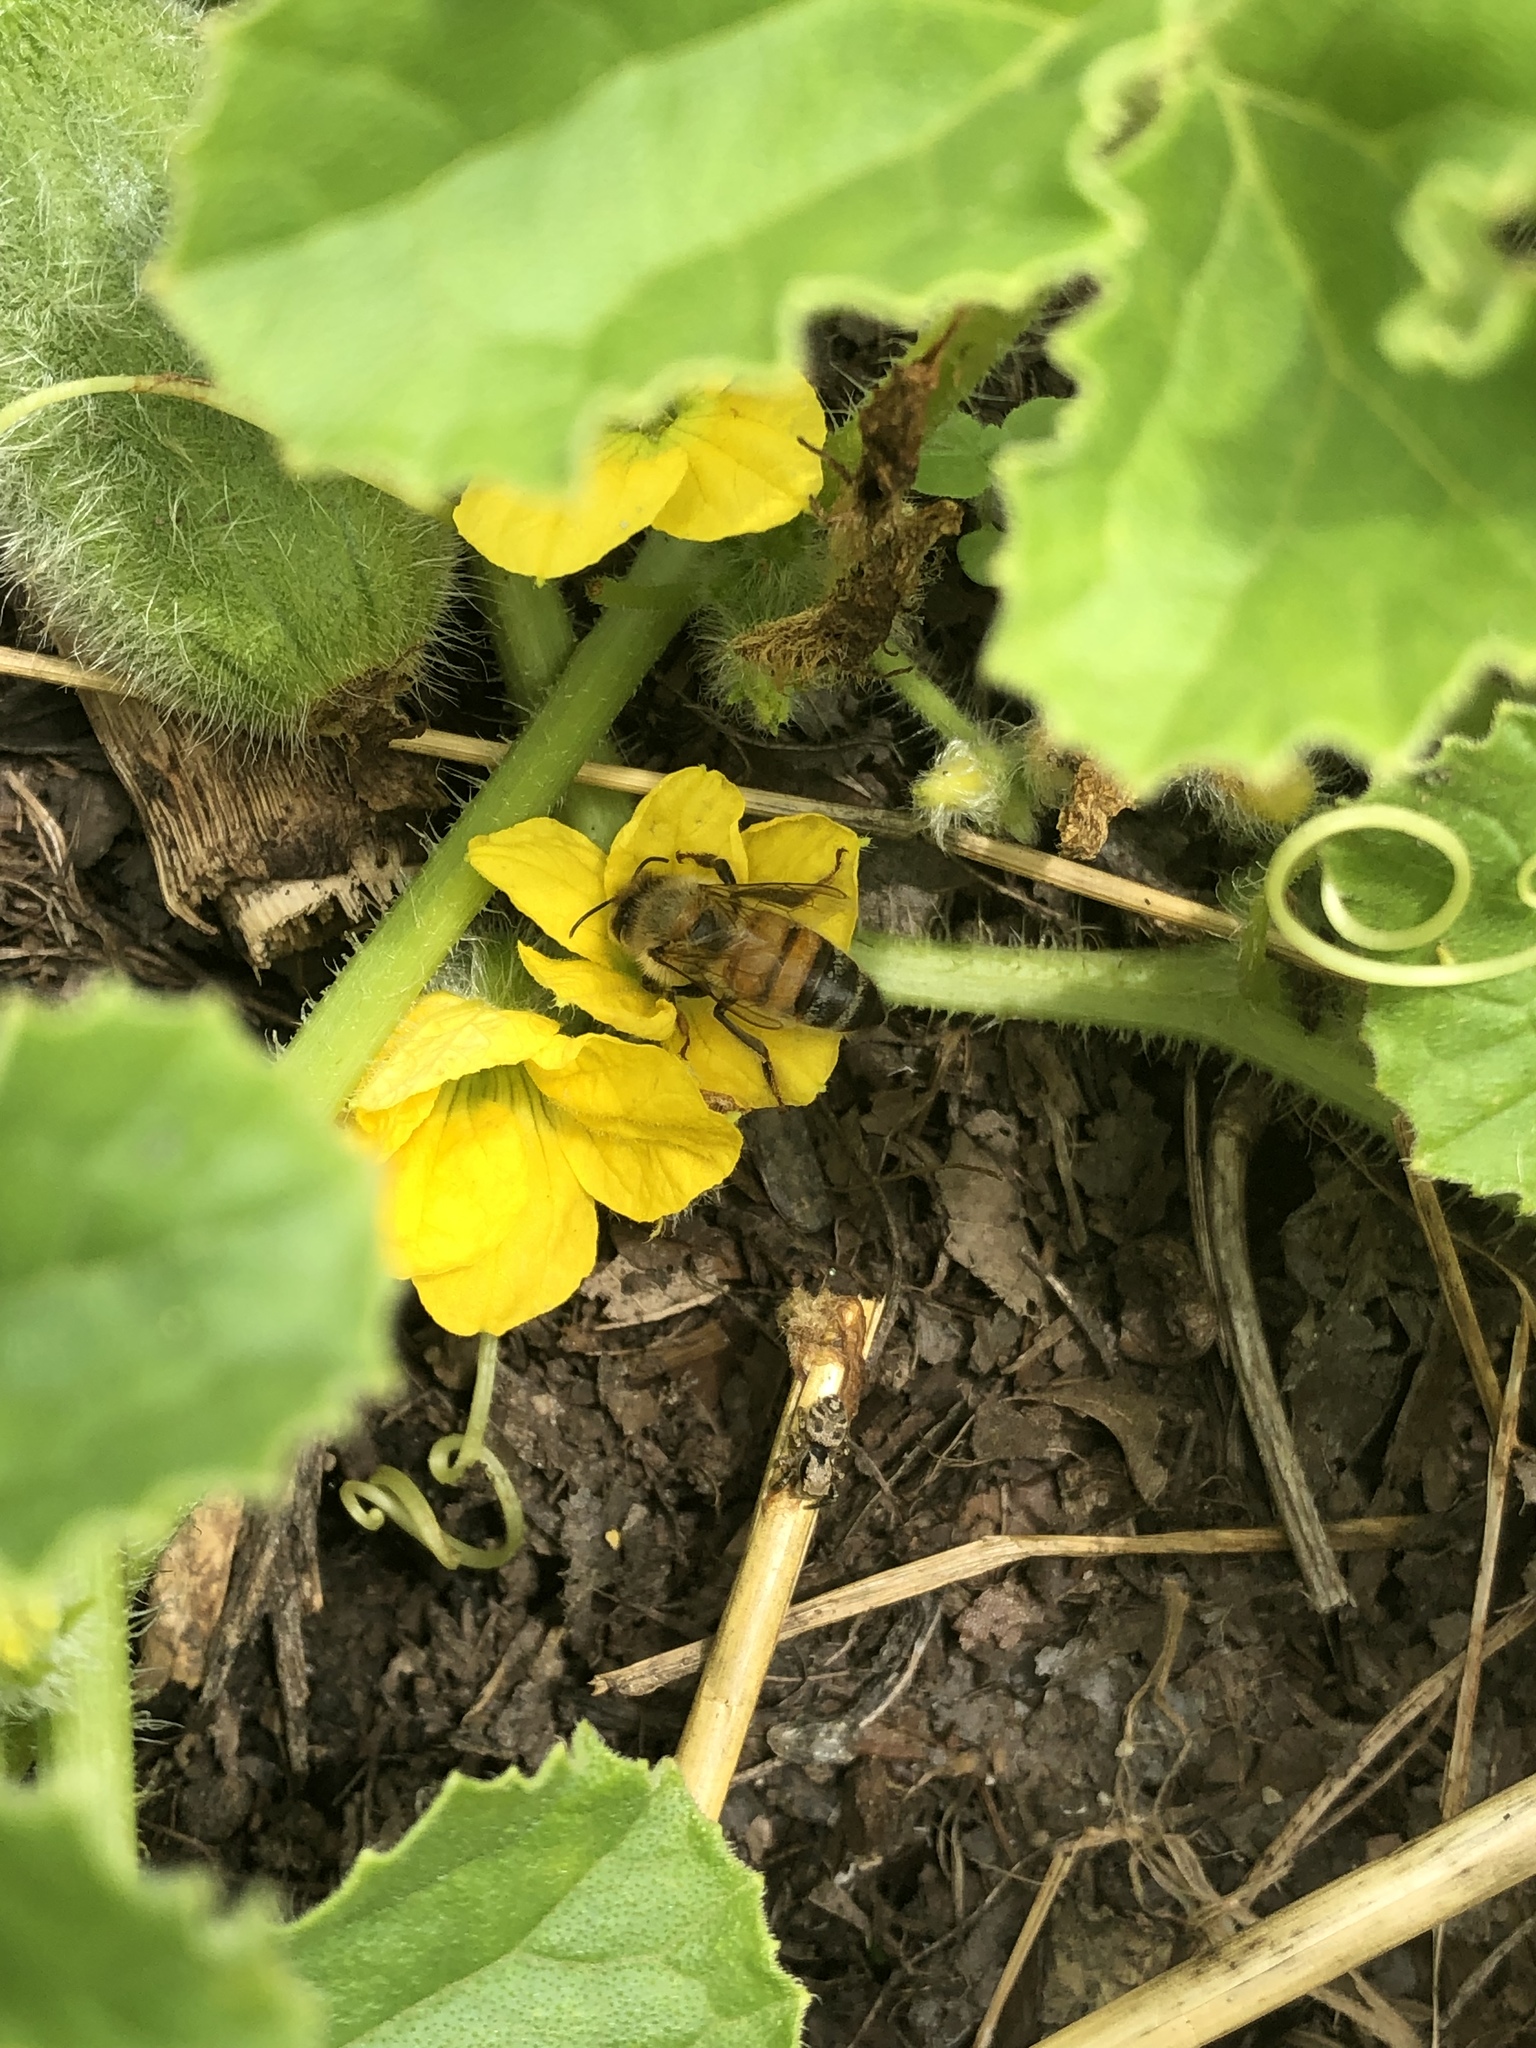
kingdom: Animalia
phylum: Arthropoda
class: Insecta
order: Hymenoptera
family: Apidae
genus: Apis
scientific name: Apis mellifera
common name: Honey bee
